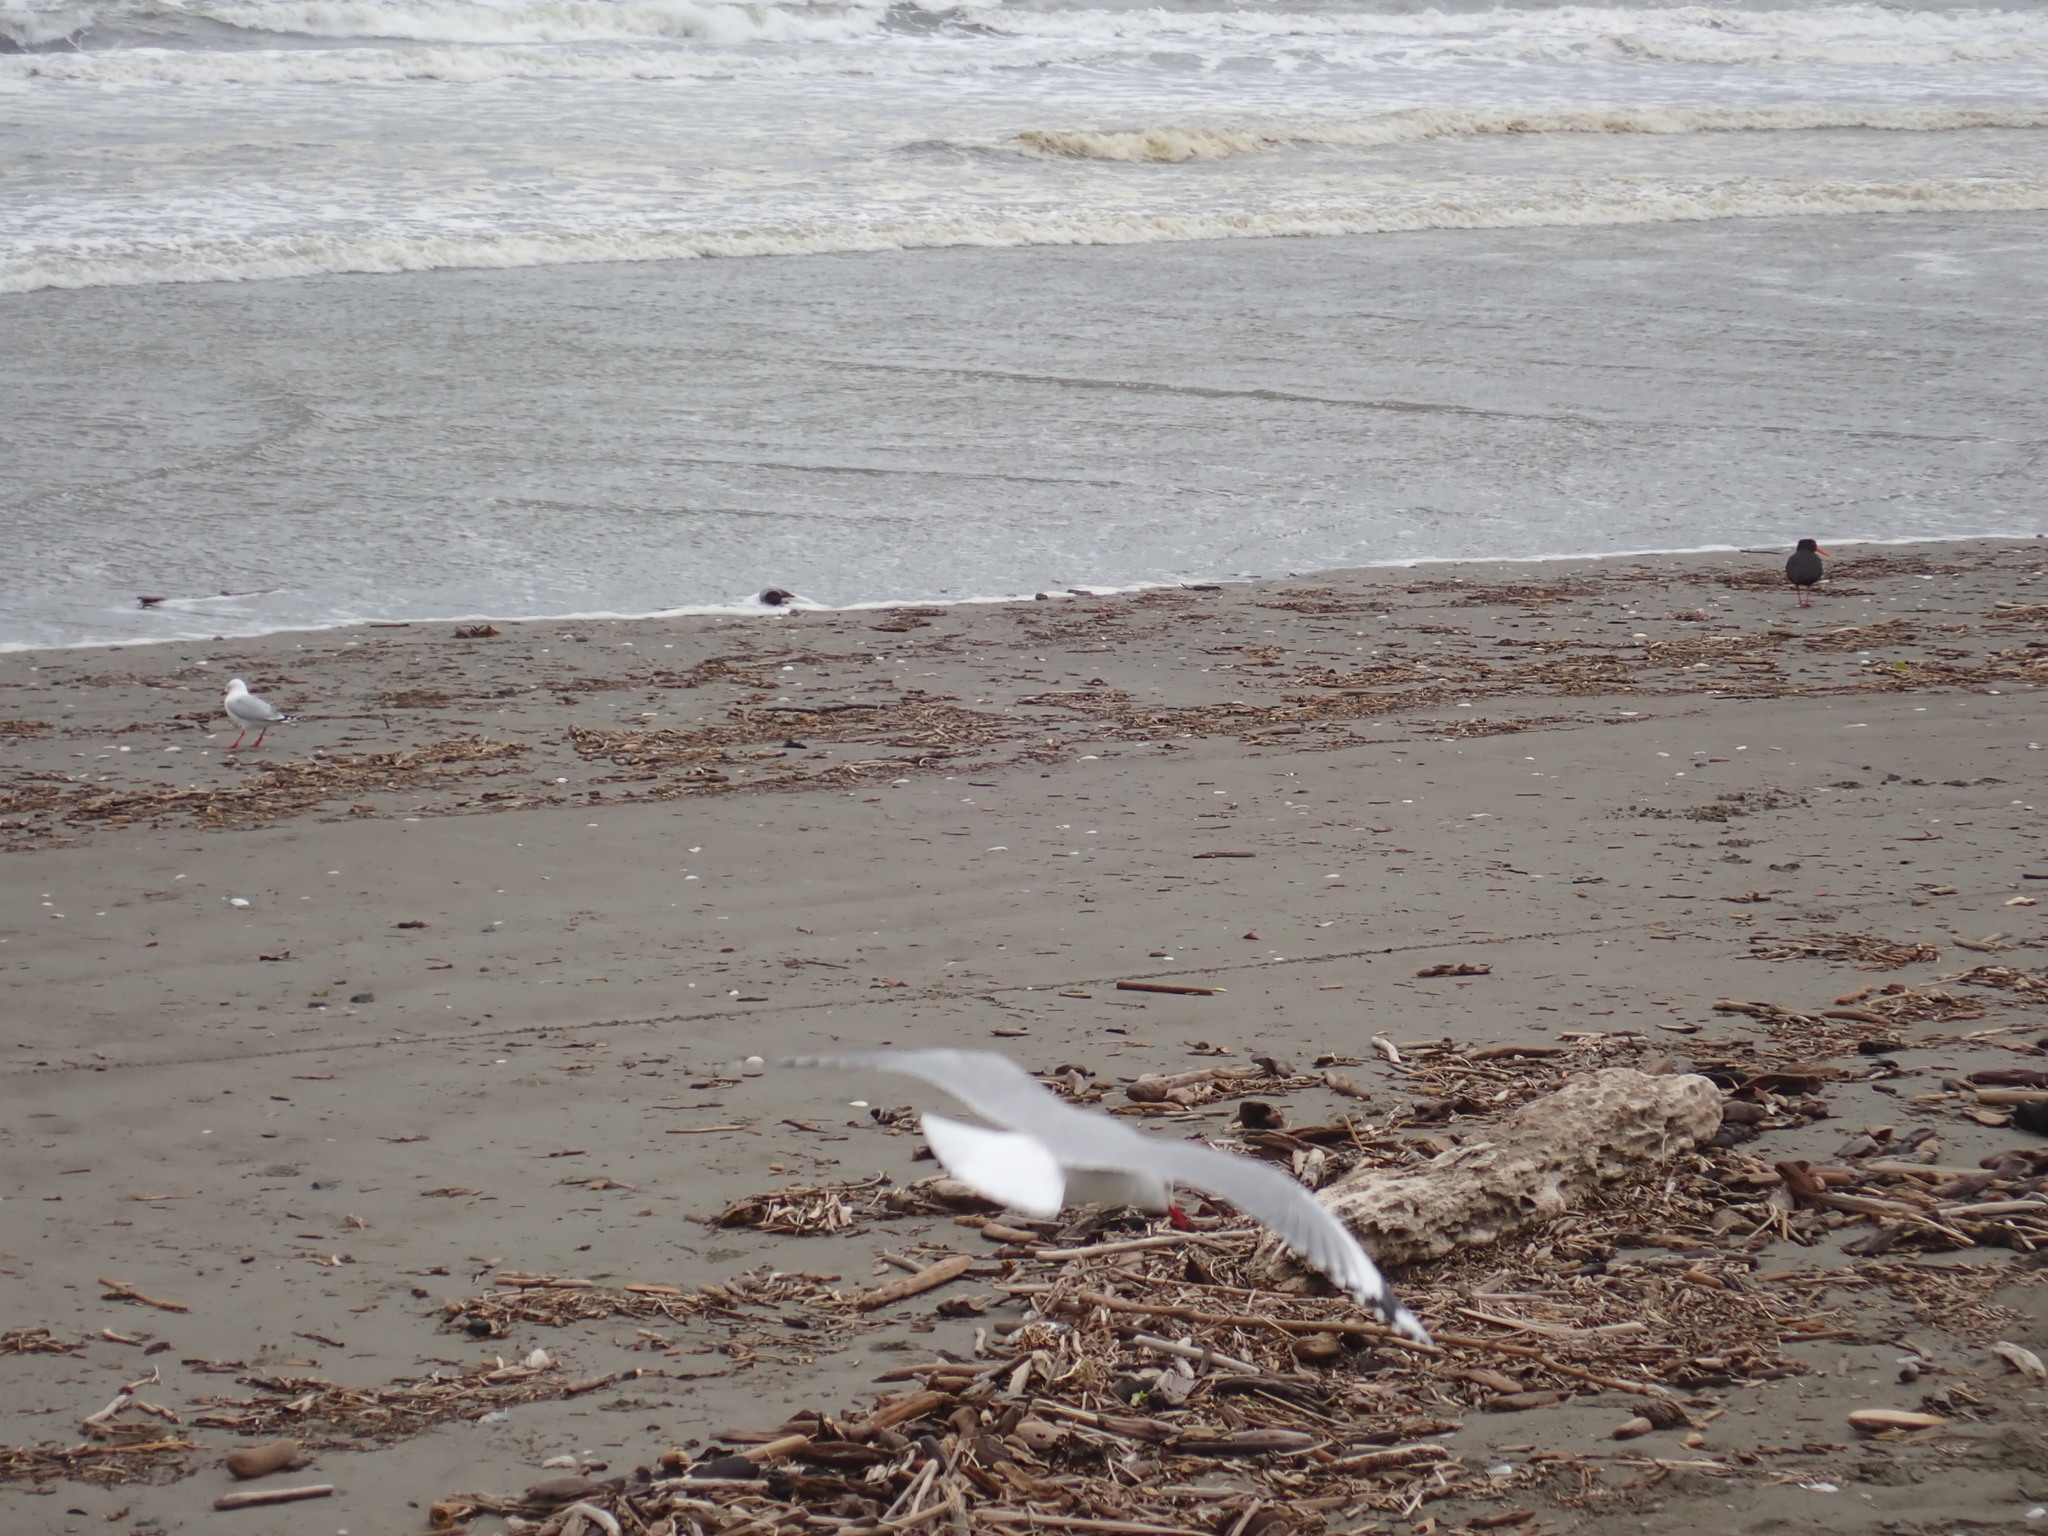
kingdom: Animalia
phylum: Chordata
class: Aves
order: Charadriiformes
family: Haematopodidae
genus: Haematopus
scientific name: Haematopus unicolor
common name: Variable oystercatcher
